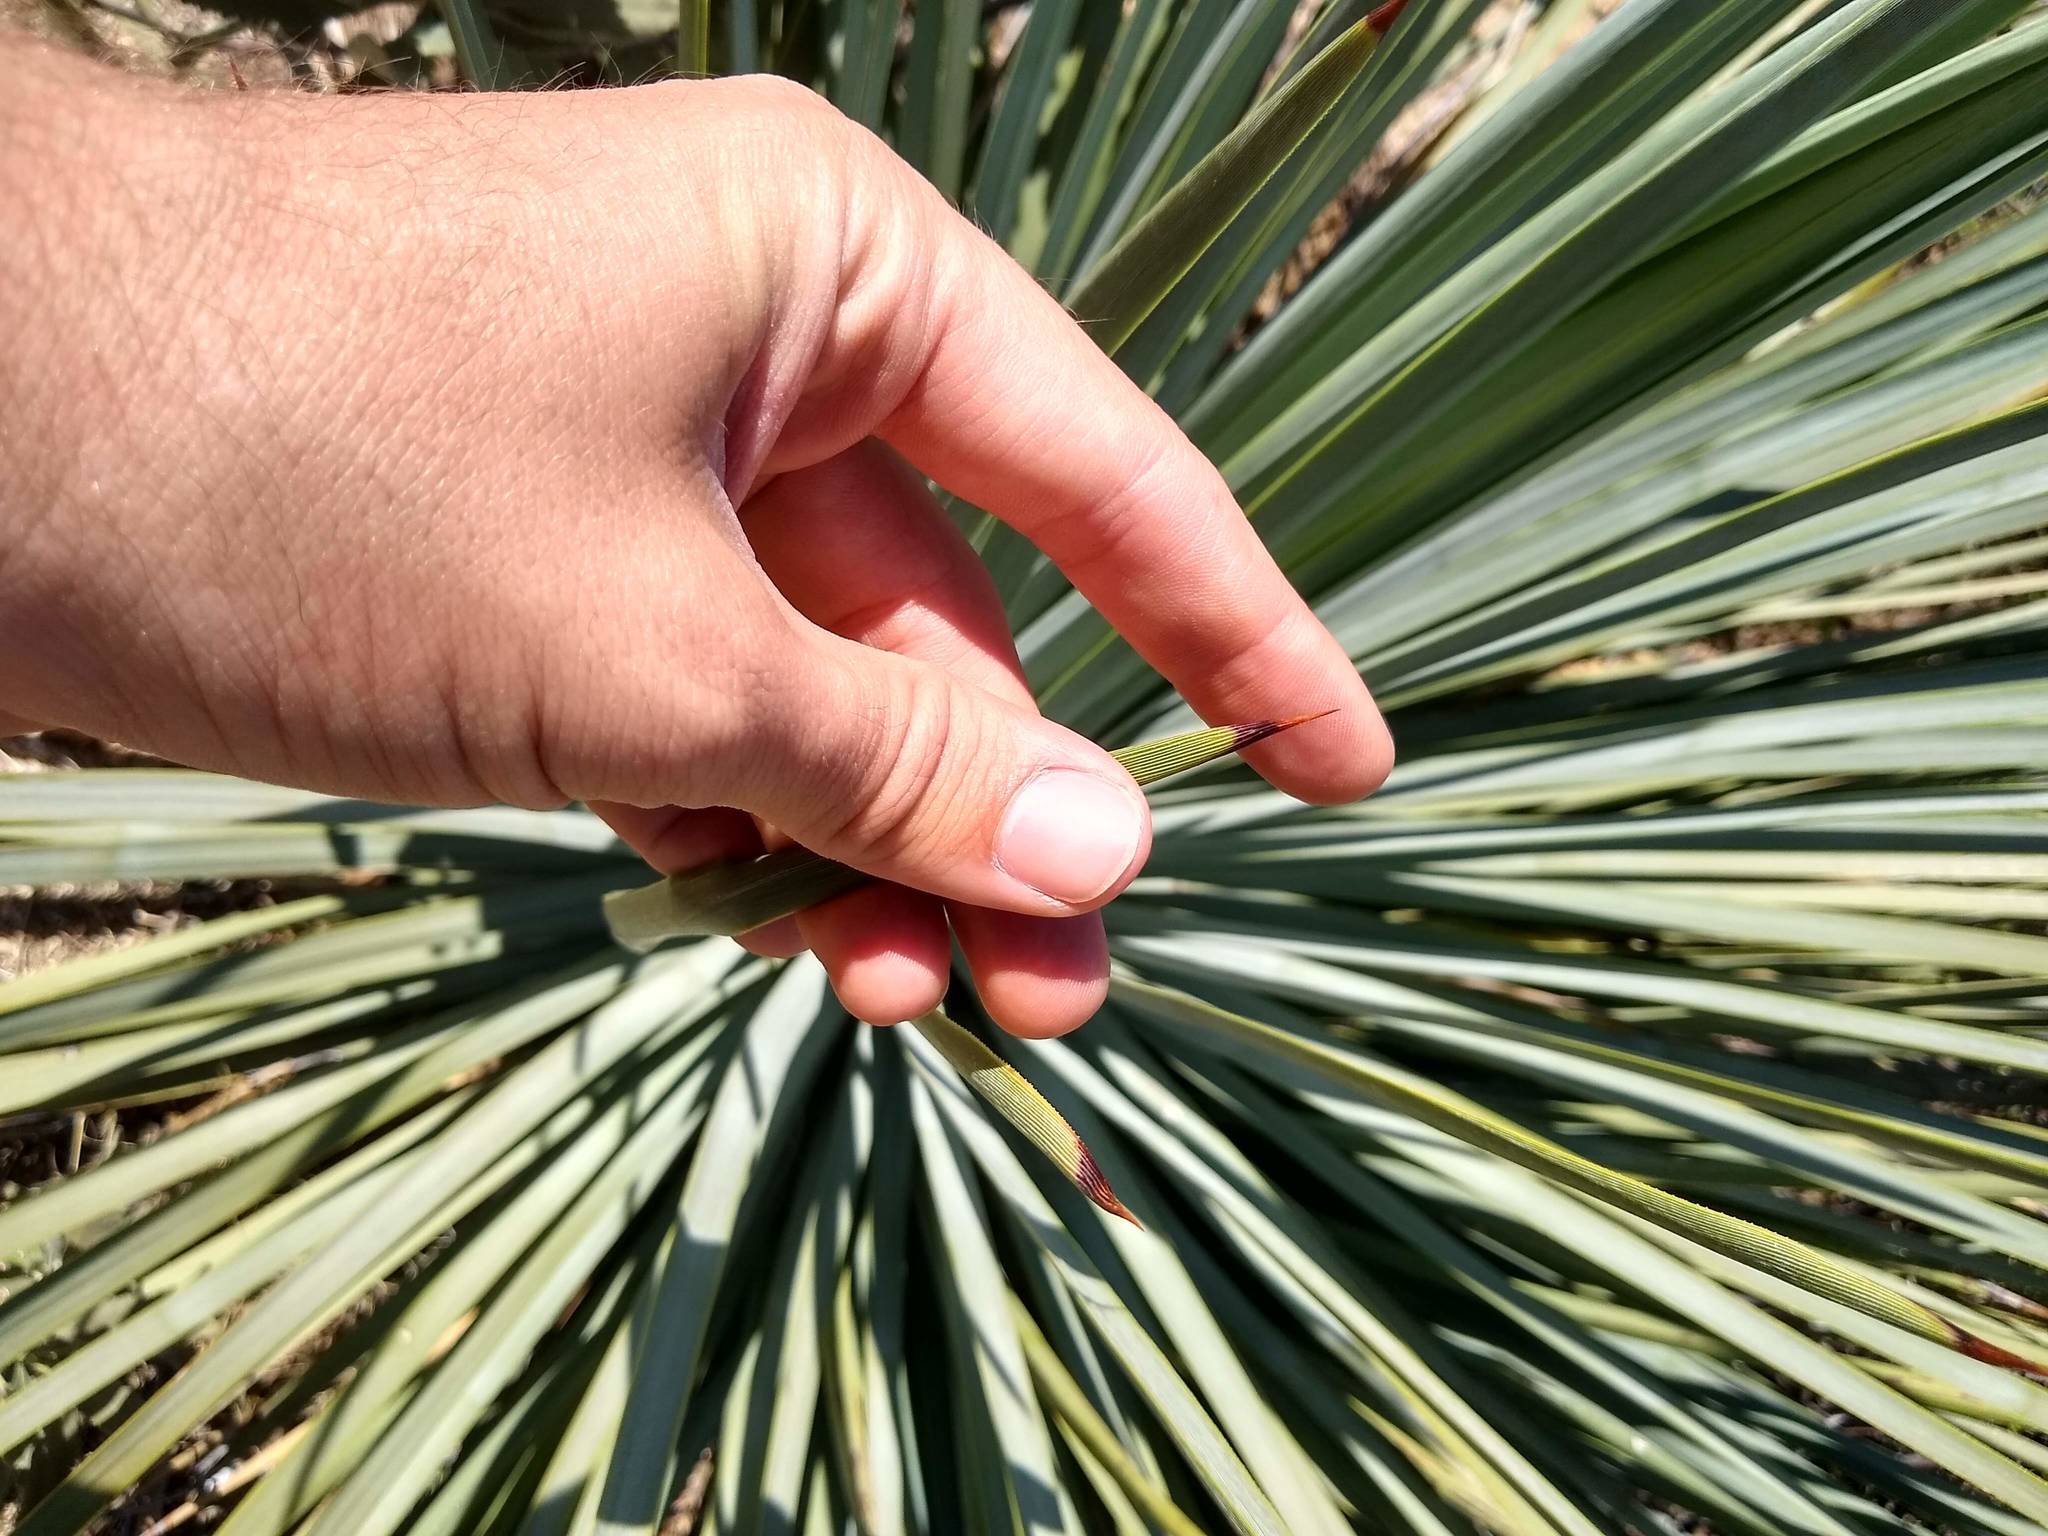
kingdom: Plantae
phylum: Tracheophyta
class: Liliopsida
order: Asparagales
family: Asparagaceae
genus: Hesperoyucca
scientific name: Hesperoyucca whipplei
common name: Our lord's-candle
